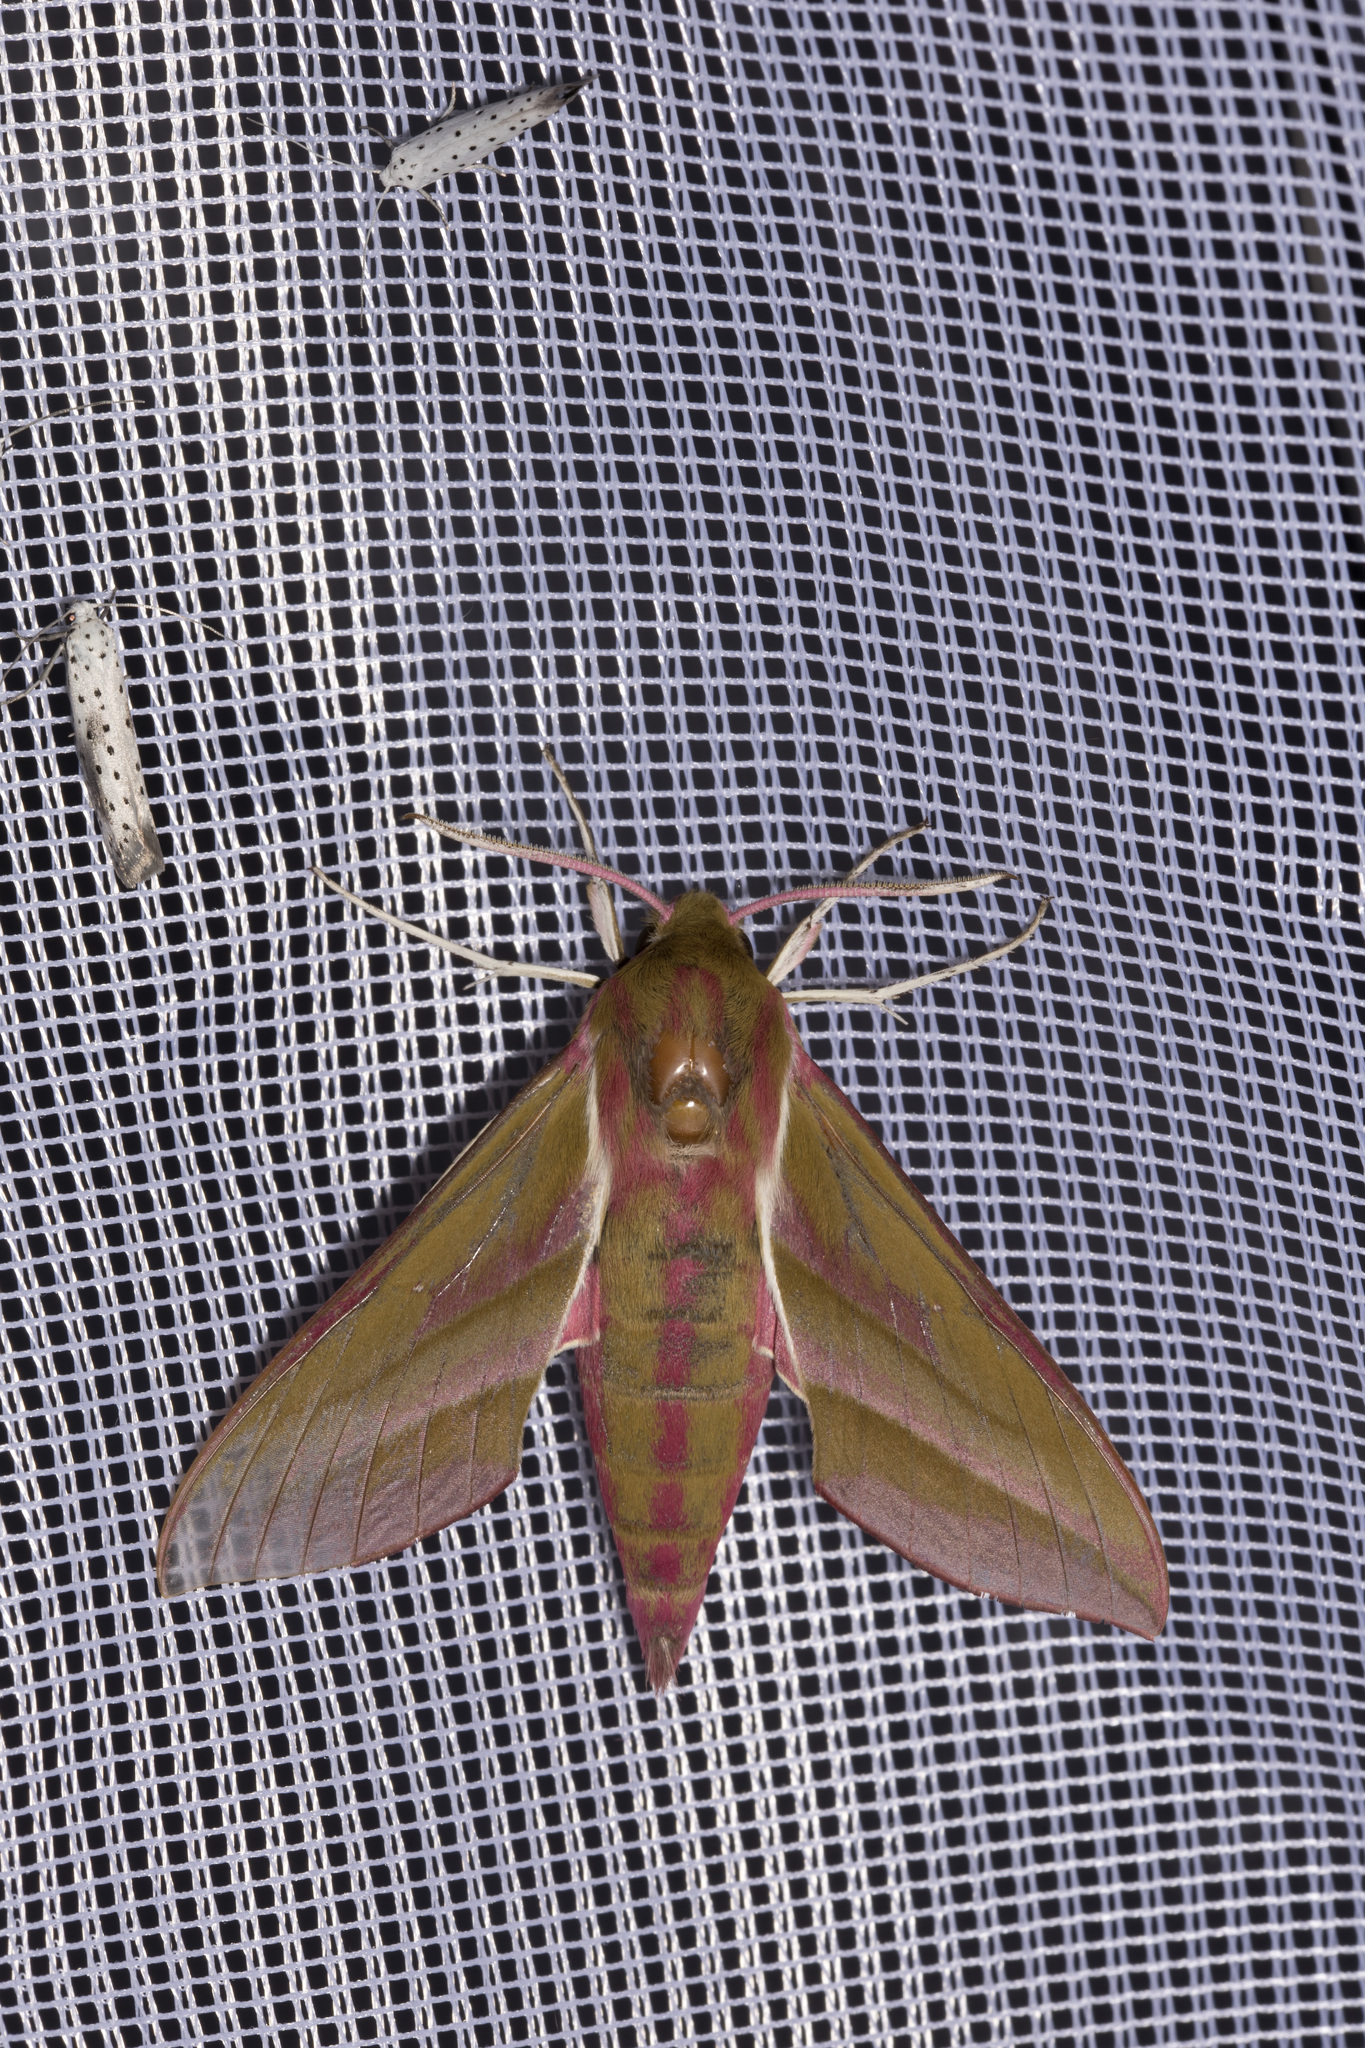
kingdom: Animalia
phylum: Arthropoda
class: Insecta
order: Lepidoptera
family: Sphingidae
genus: Deilephila
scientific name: Deilephila elpenor
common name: Elephant hawk-moth
